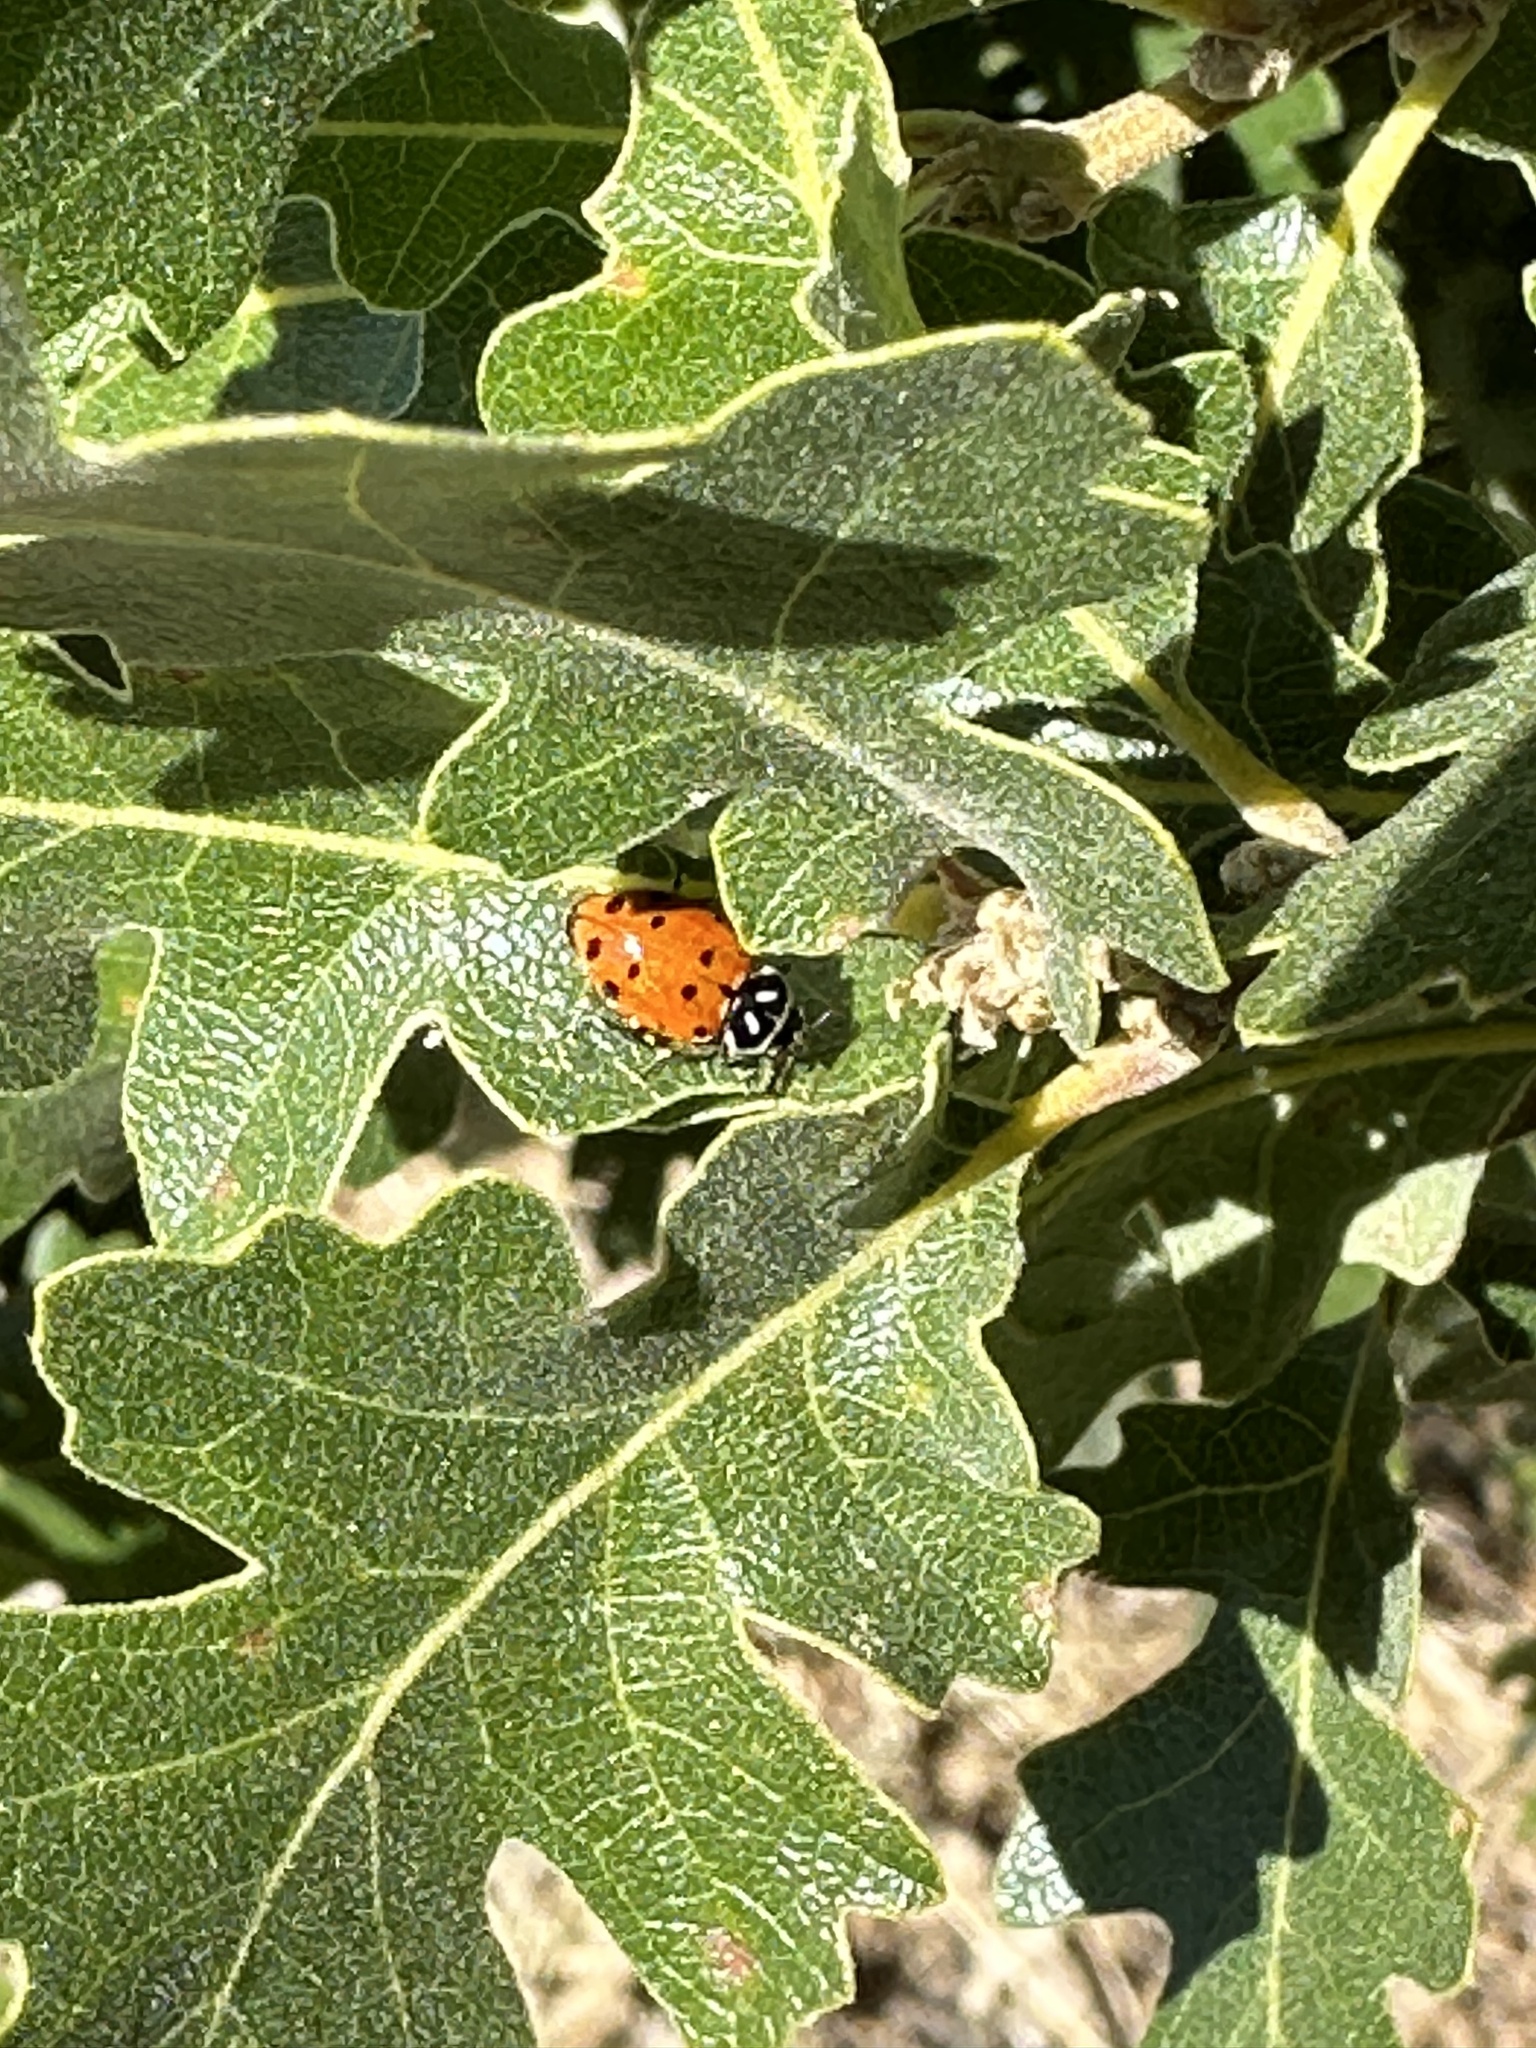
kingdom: Animalia
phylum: Arthropoda
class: Insecta
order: Coleoptera
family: Coccinellidae
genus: Hippodamia
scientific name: Hippodamia convergens
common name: Convergent lady beetle
